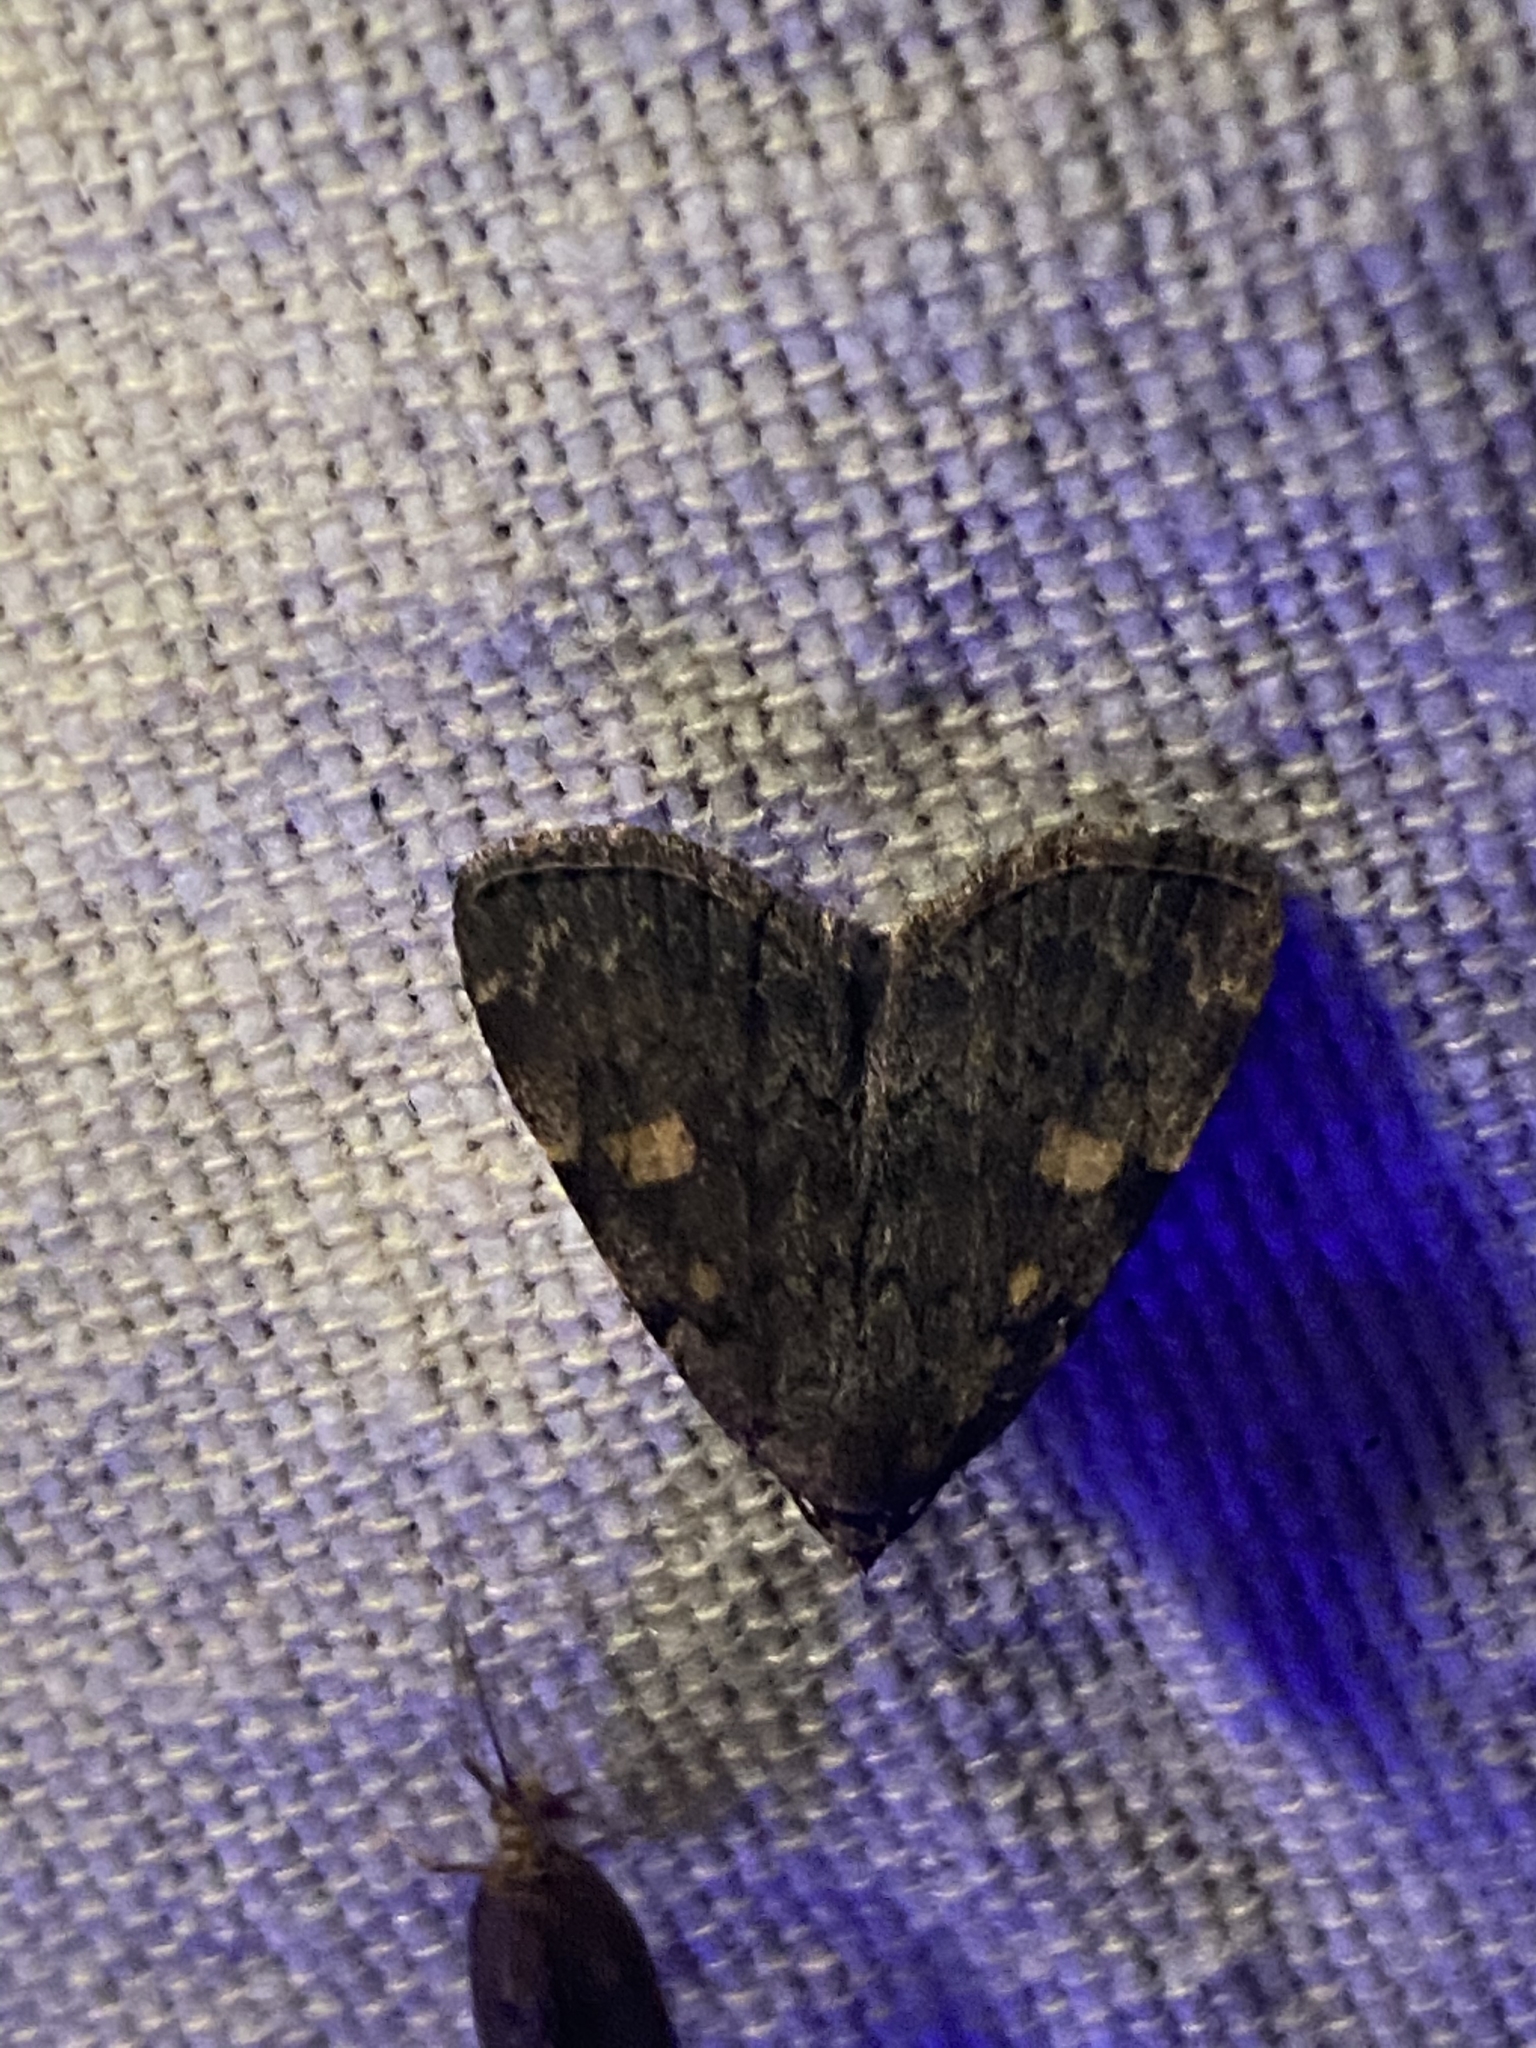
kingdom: Animalia
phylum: Arthropoda
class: Insecta
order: Lepidoptera
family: Erebidae
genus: Idia
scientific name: Idia aemula
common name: Common idia moth
